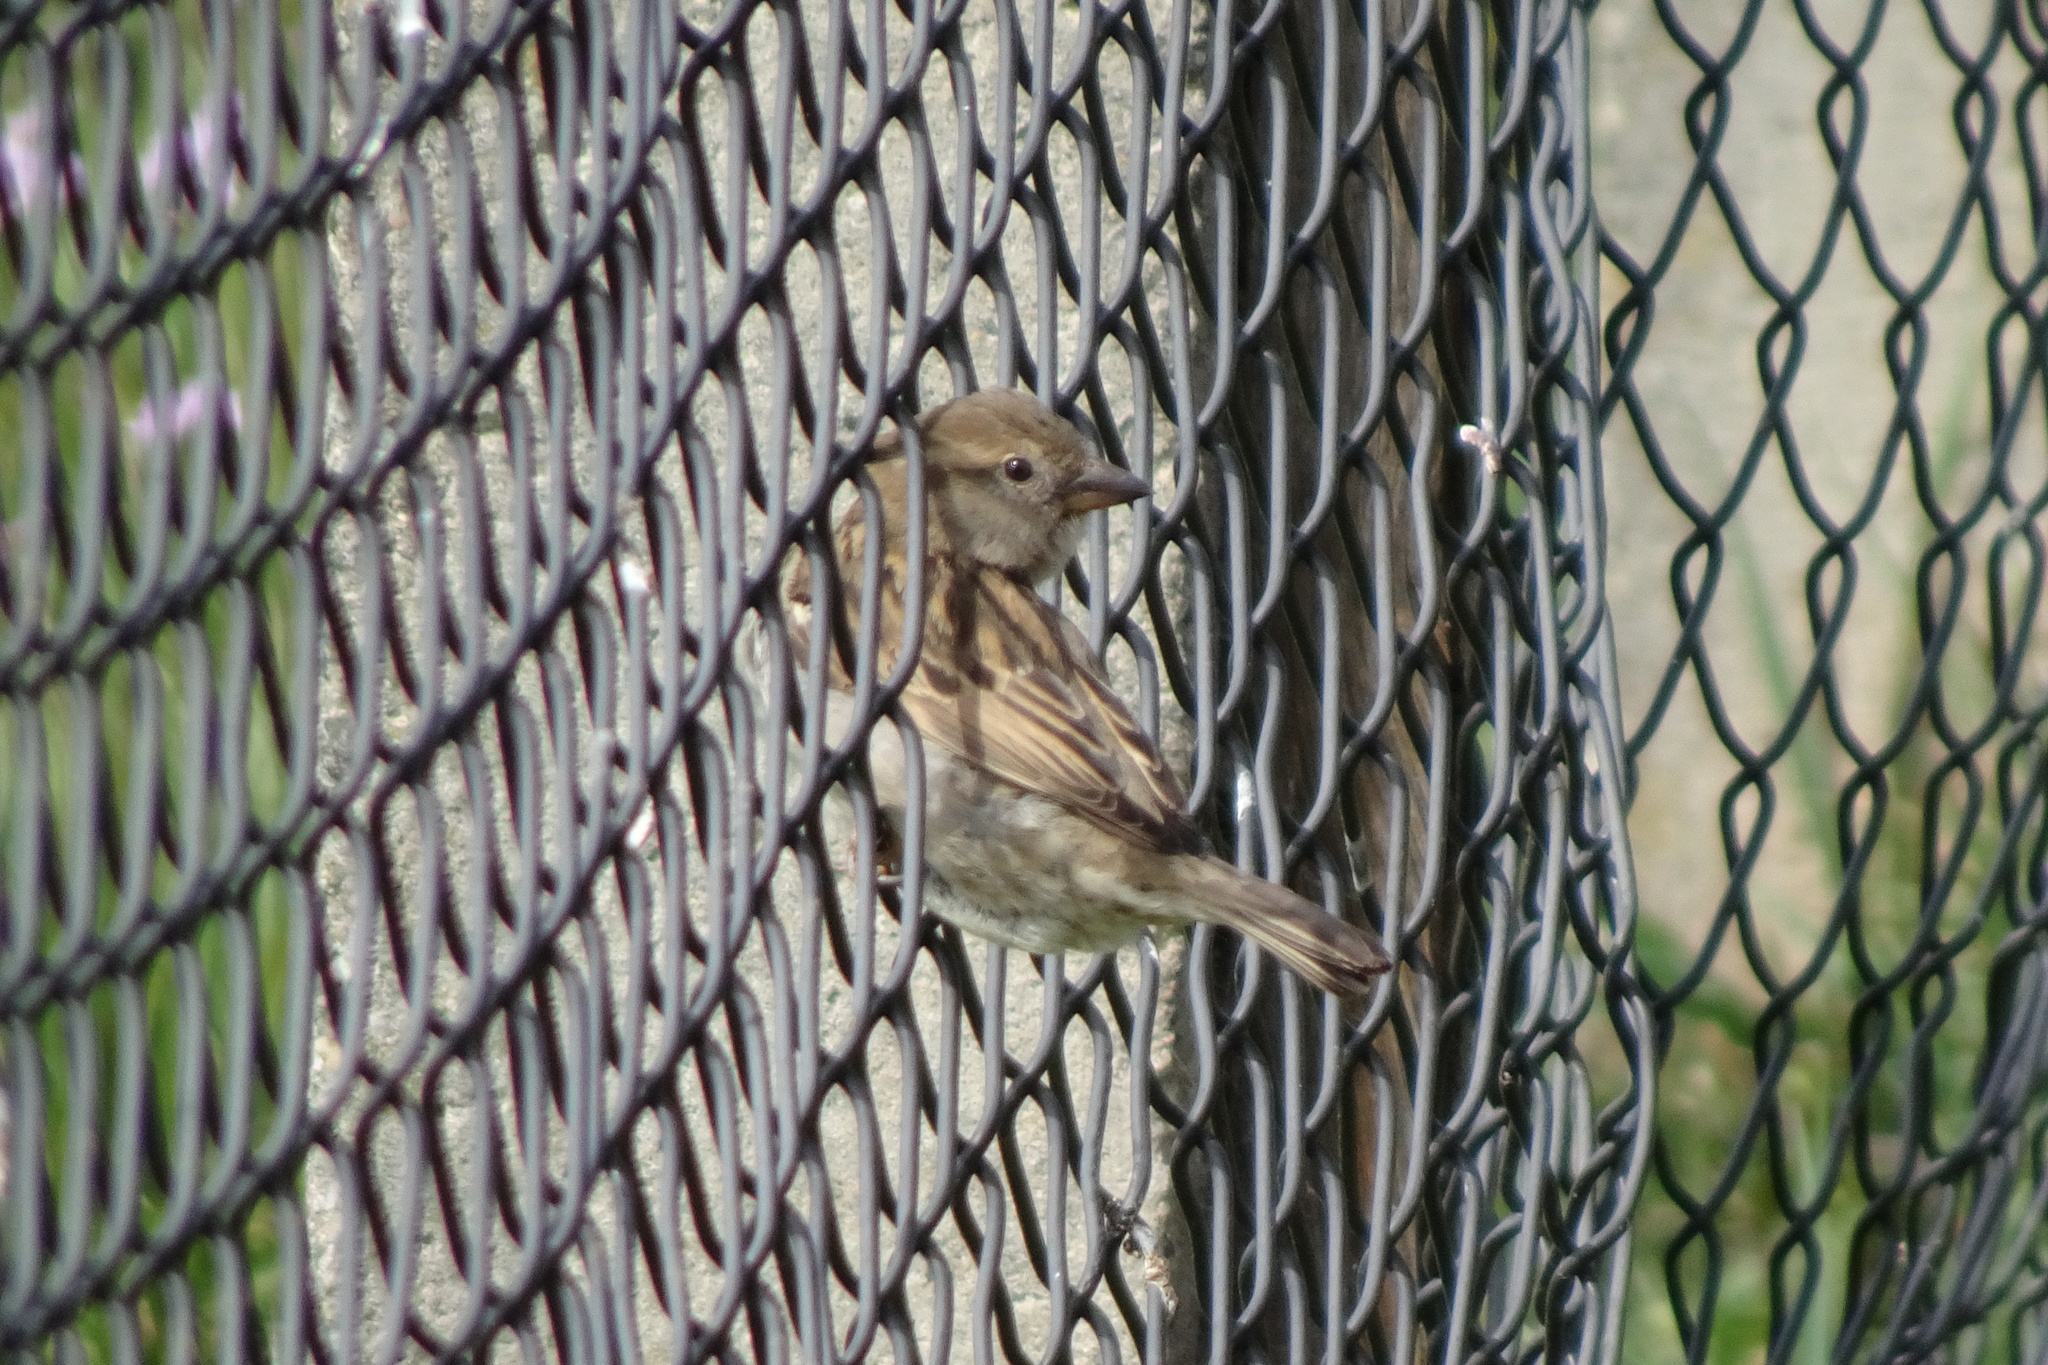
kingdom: Animalia
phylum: Chordata
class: Aves
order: Passeriformes
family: Passeridae
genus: Passer
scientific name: Passer domesticus
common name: House sparrow
